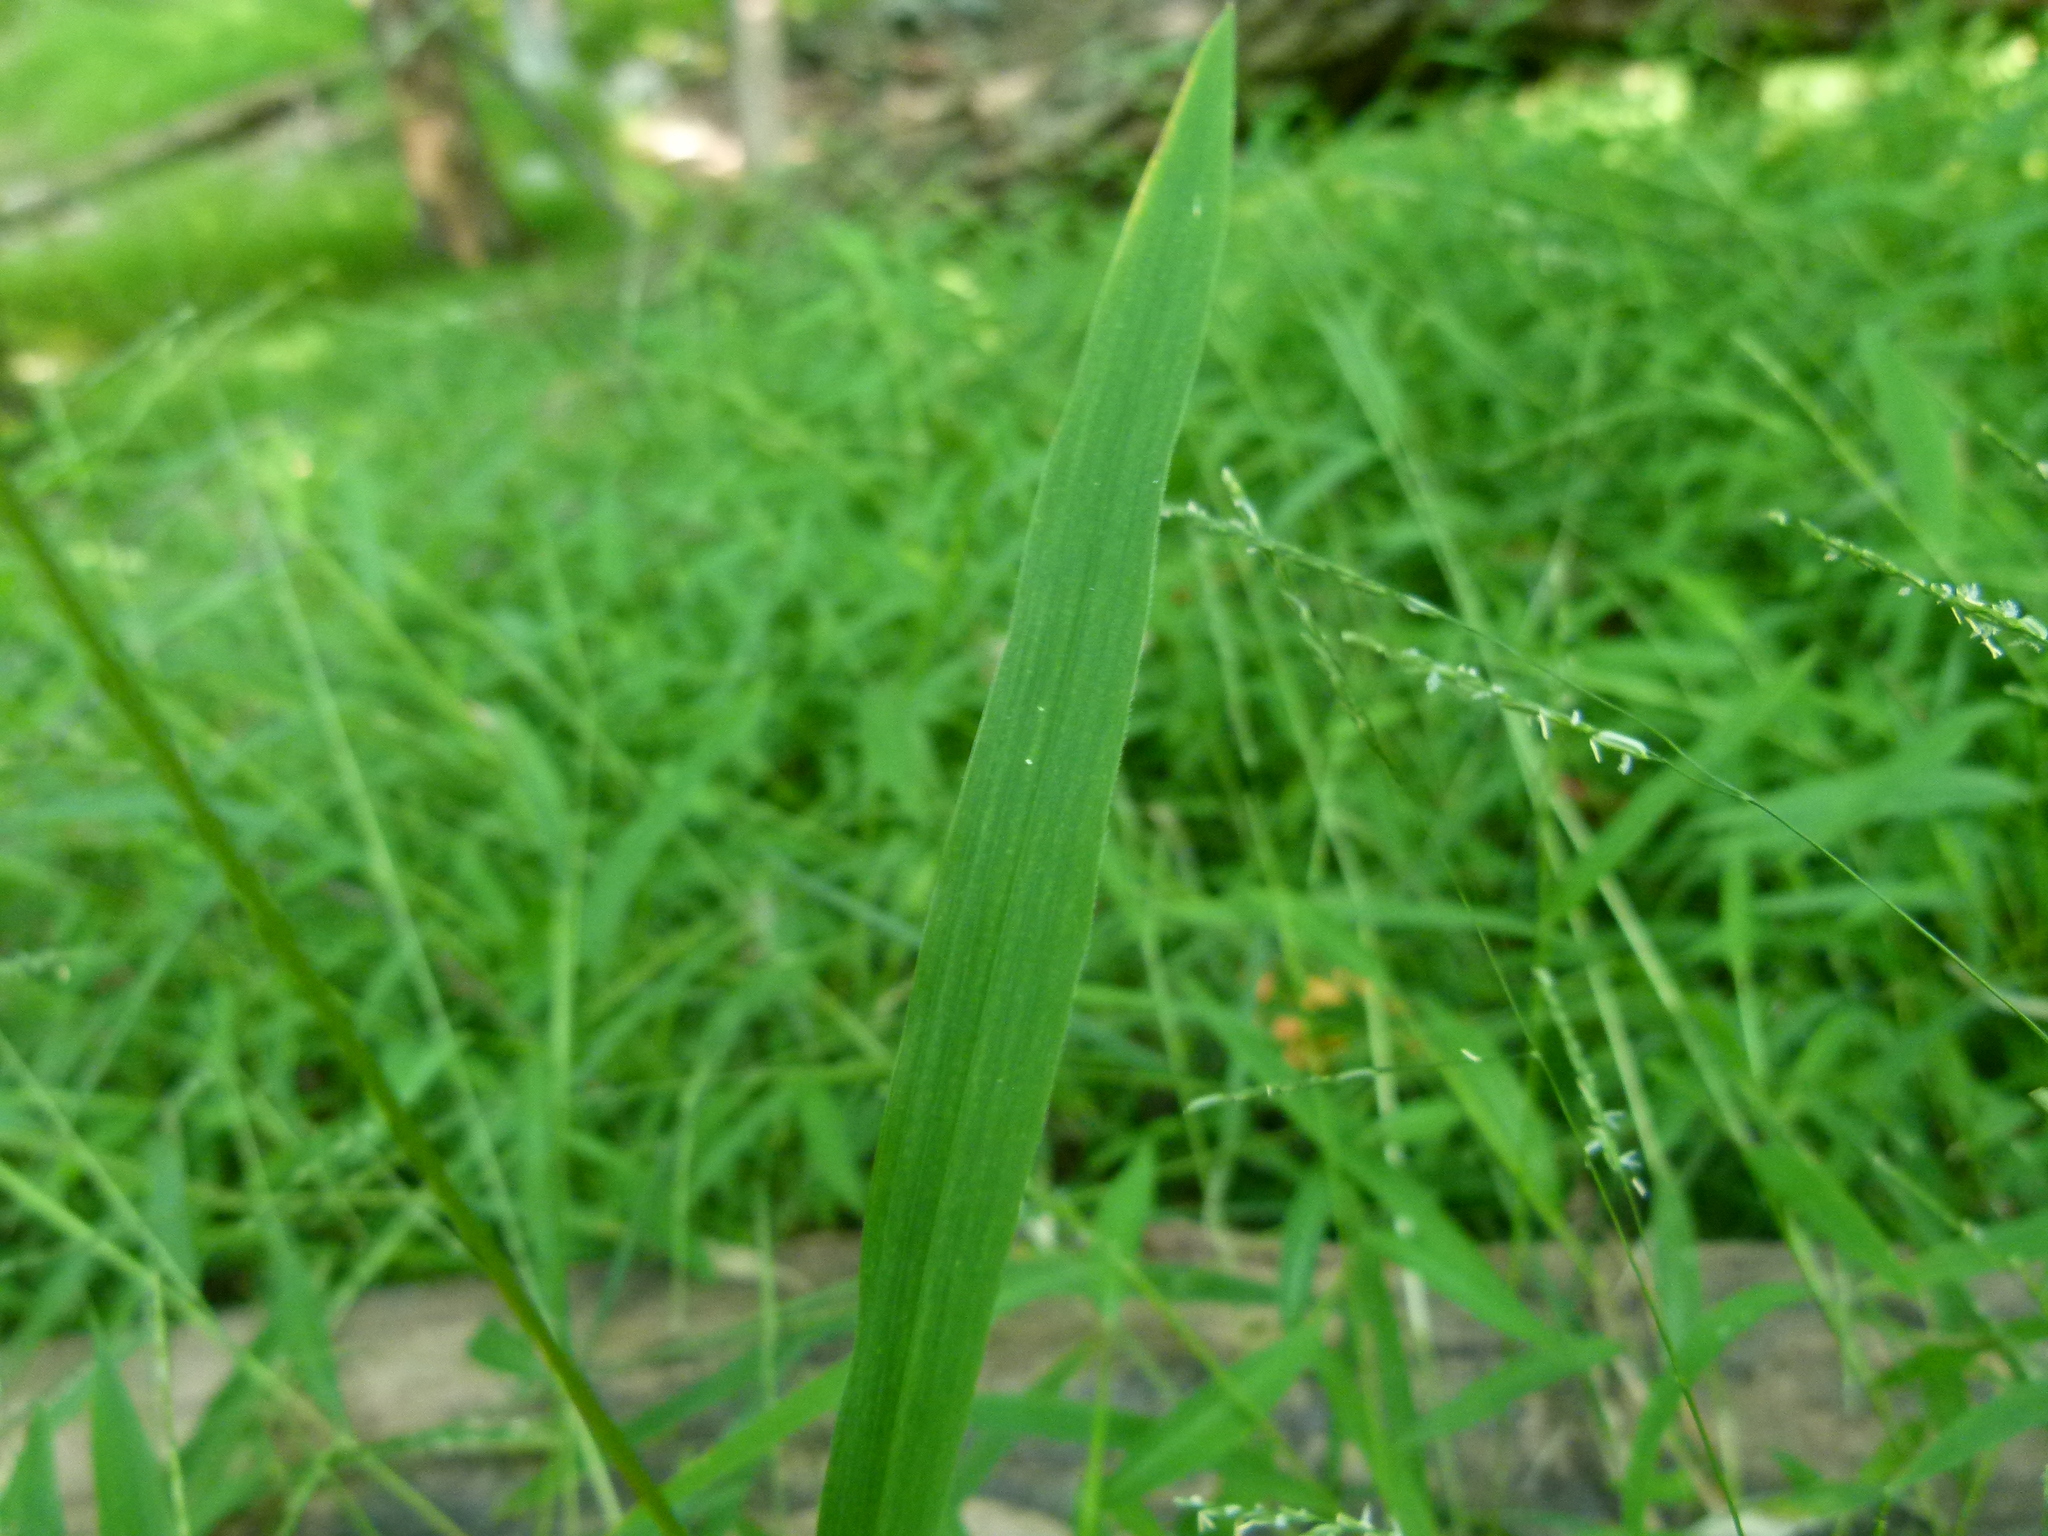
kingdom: Plantae
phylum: Tracheophyta
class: Liliopsida
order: Poales
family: Poaceae
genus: Leersia
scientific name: Leersia virginica
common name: White cutgrass
